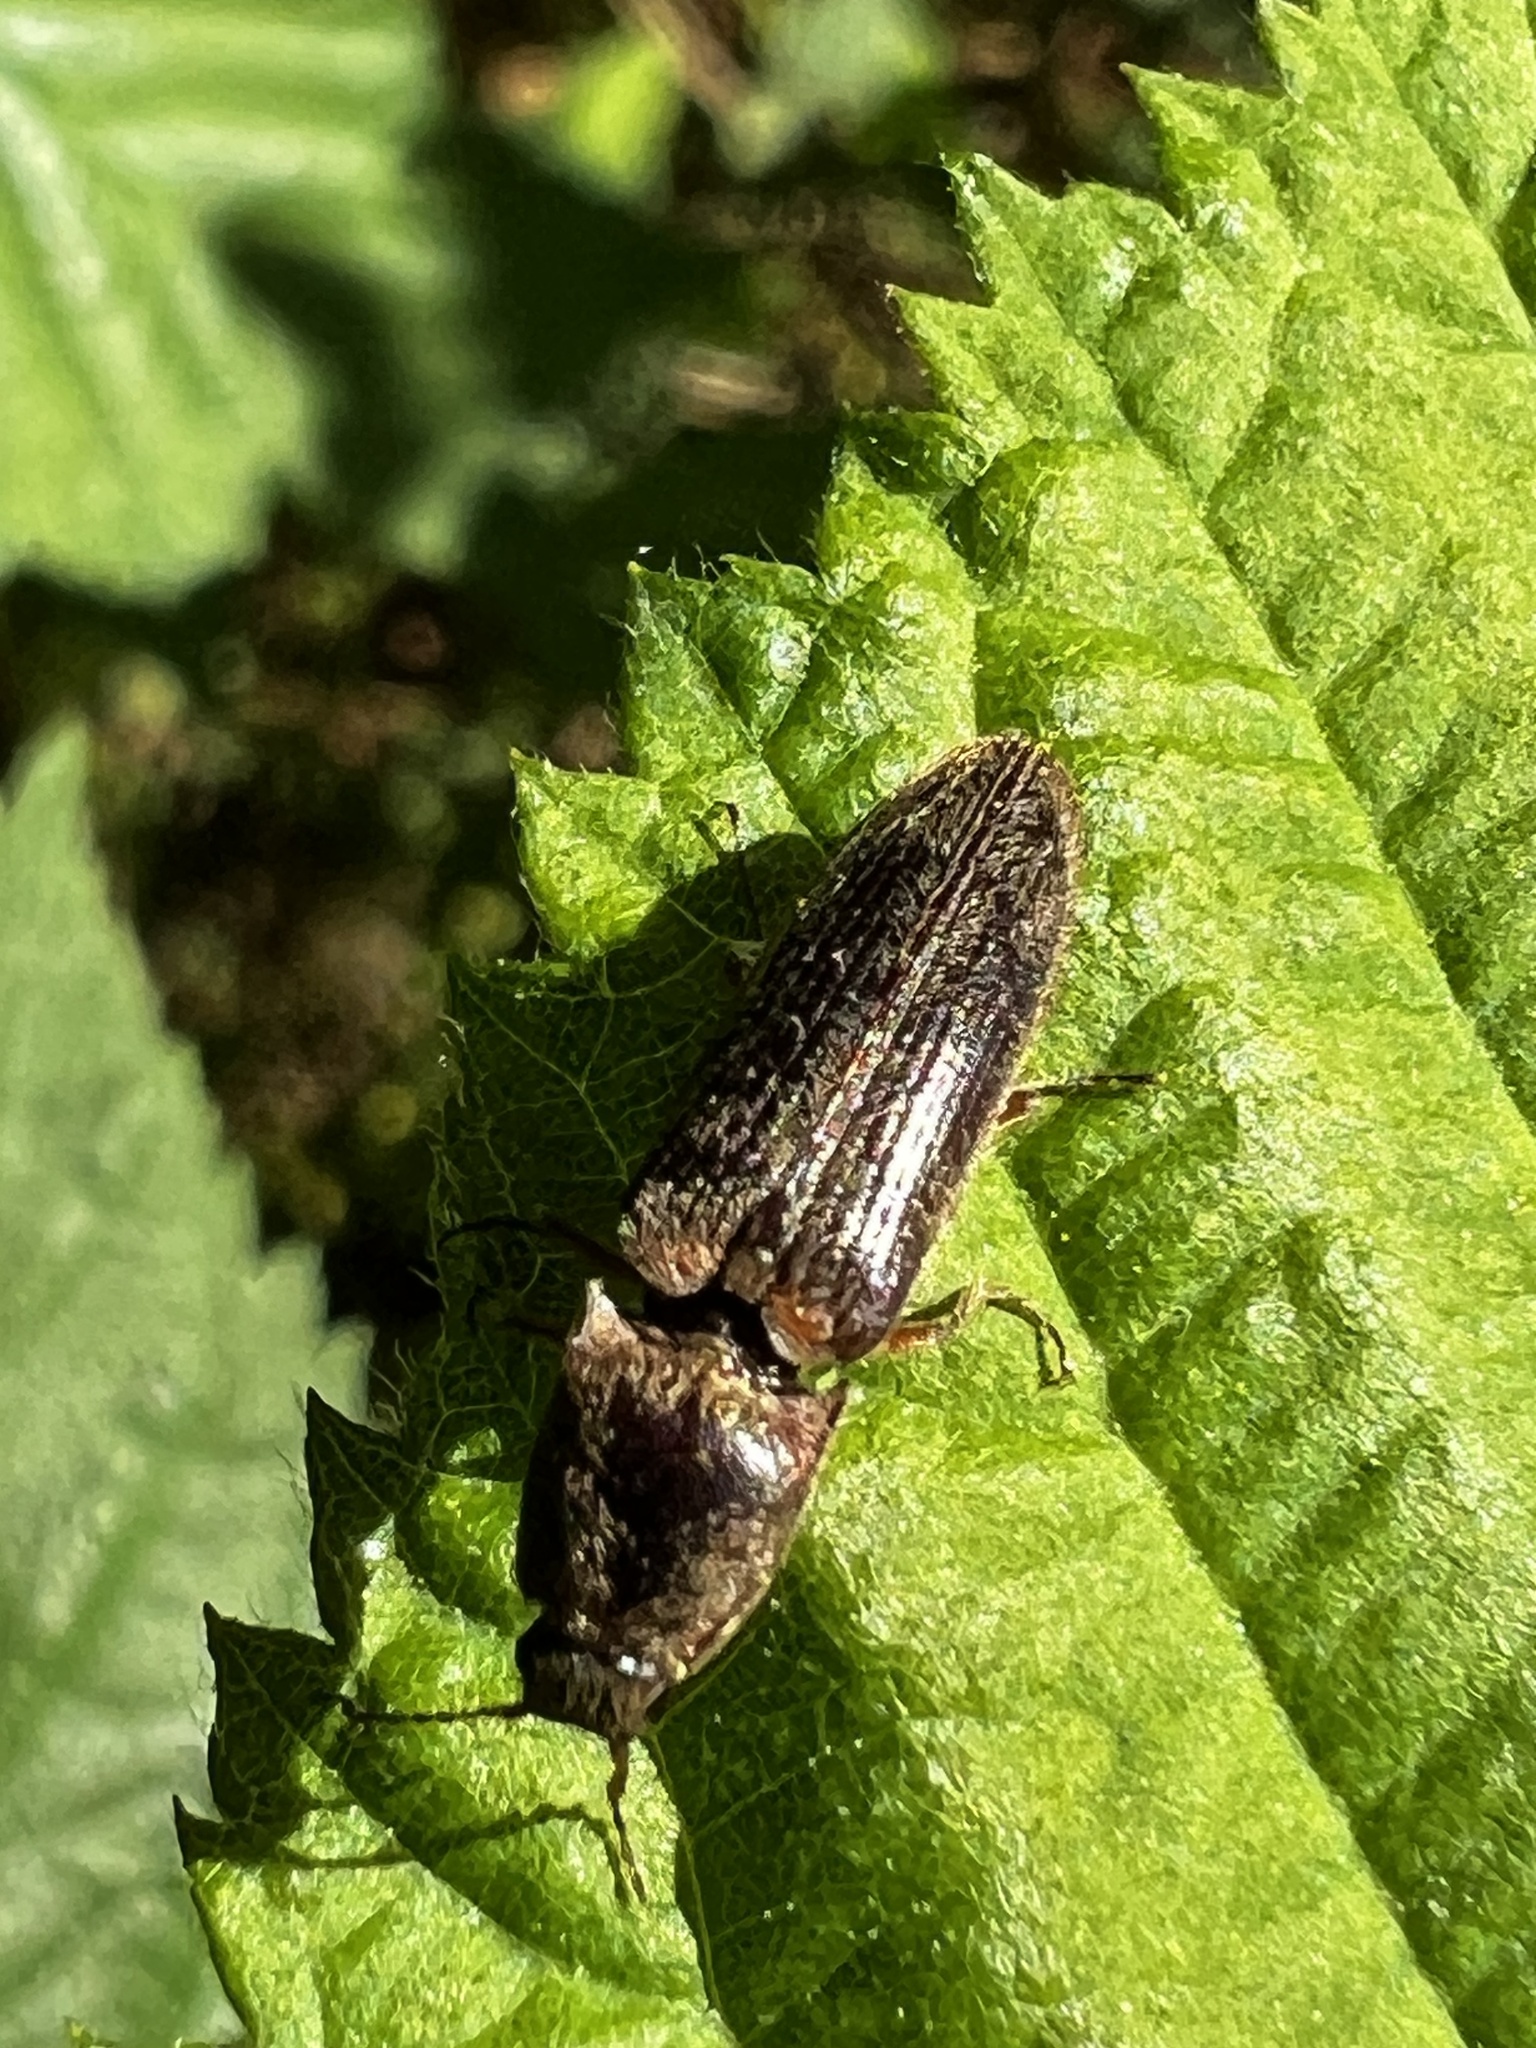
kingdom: Animalia
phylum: Arthropoda
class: Insecta
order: Coleoptera
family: Elateridae
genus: Gambrinus
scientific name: Gambrinus griseus
